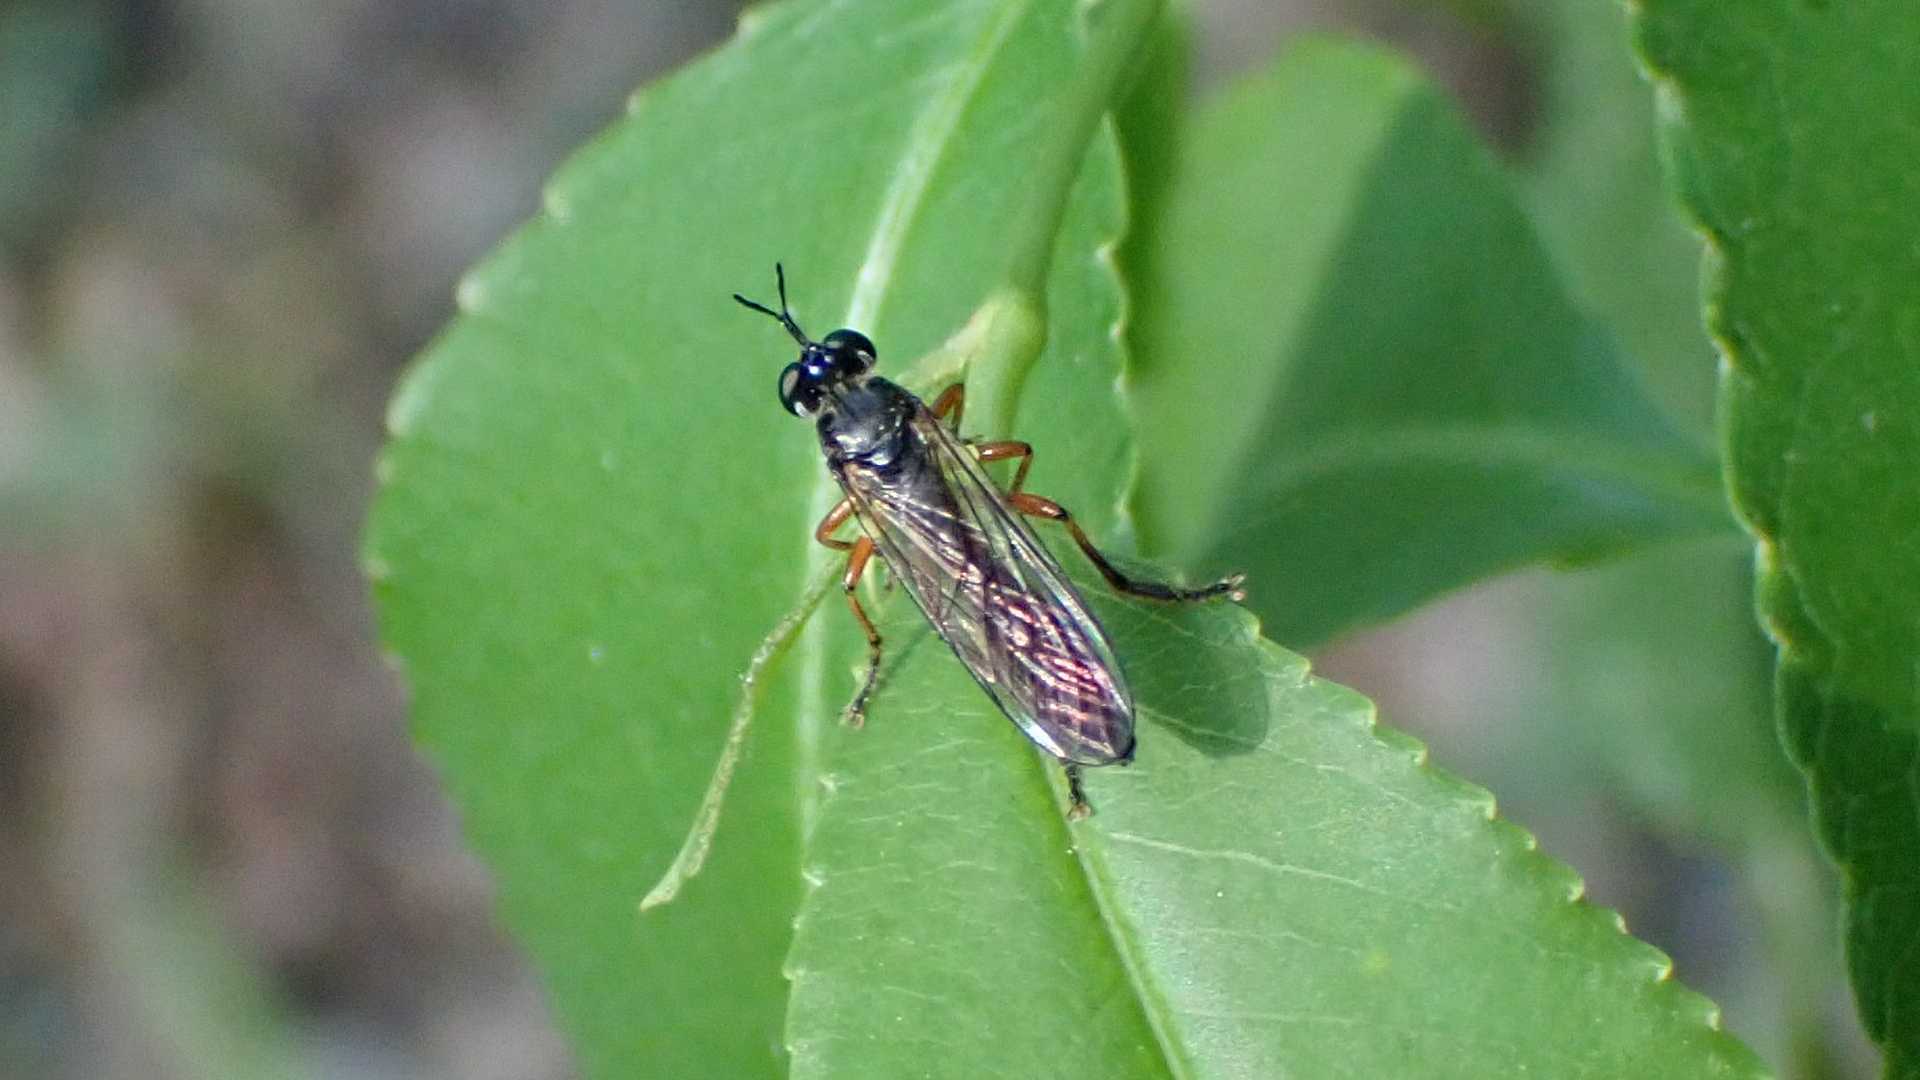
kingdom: Animalia
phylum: Arthropoda
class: Insecta
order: Diptera
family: Asilidae
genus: Dioctria
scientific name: Dioctria hyalipennis
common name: Stripe-legged robberfly
